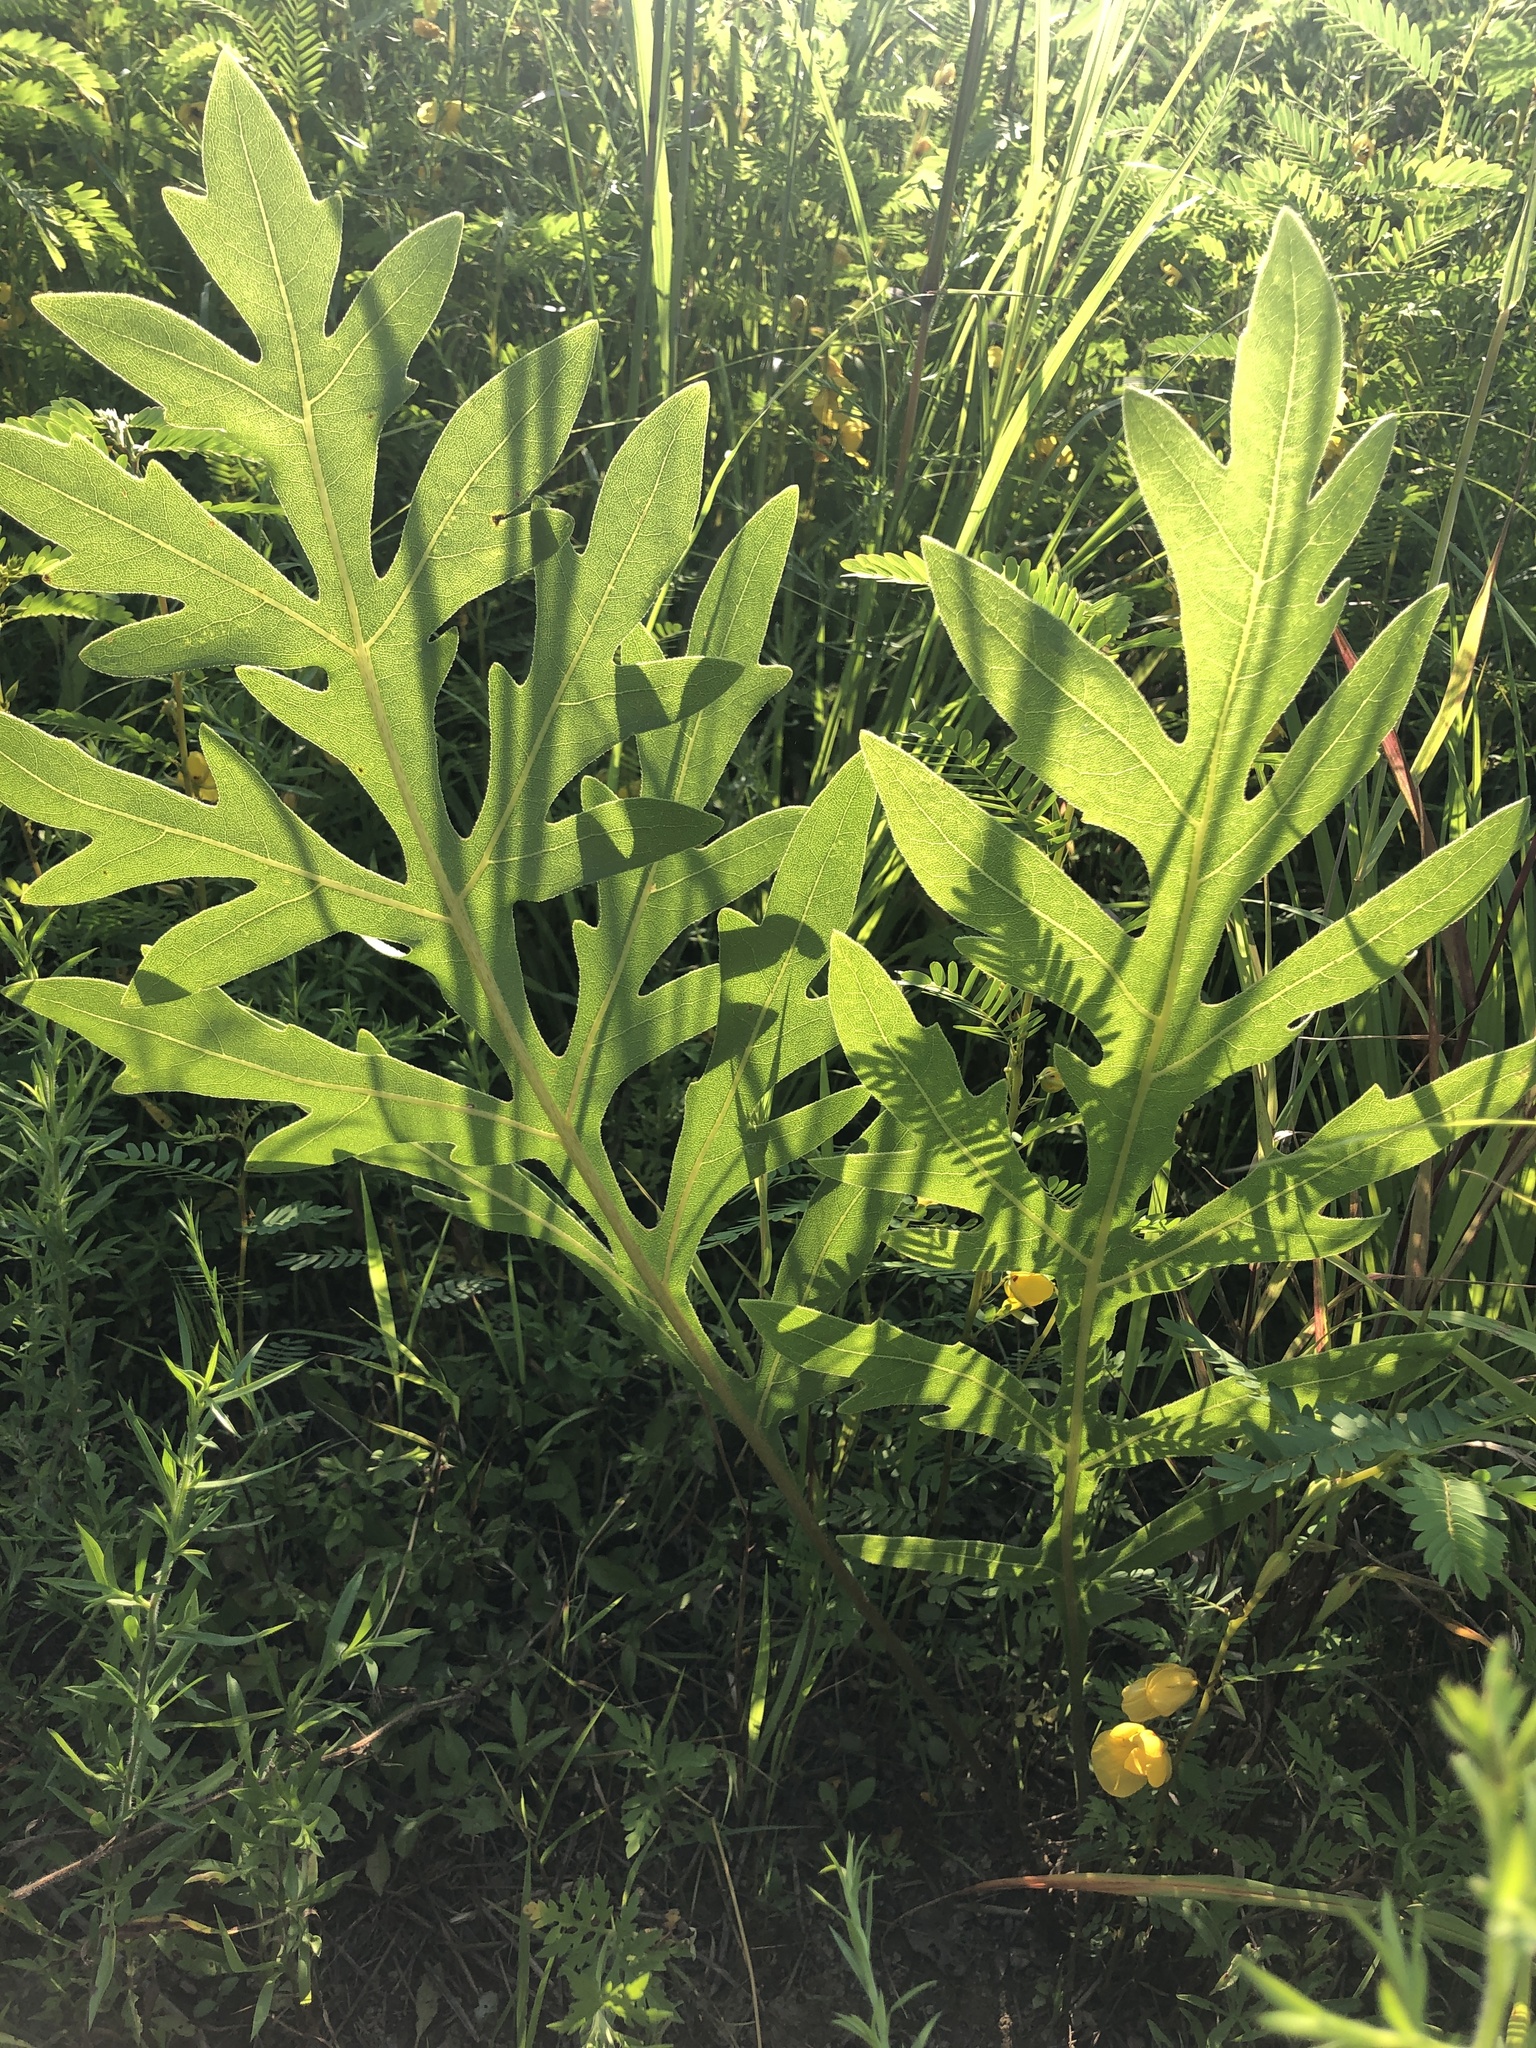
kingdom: Plantae
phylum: Tracheophyta
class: Magnoliopsida
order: Asterales
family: Asteraceae
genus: Silphium
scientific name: Silphium laciniatum
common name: Polarplant
